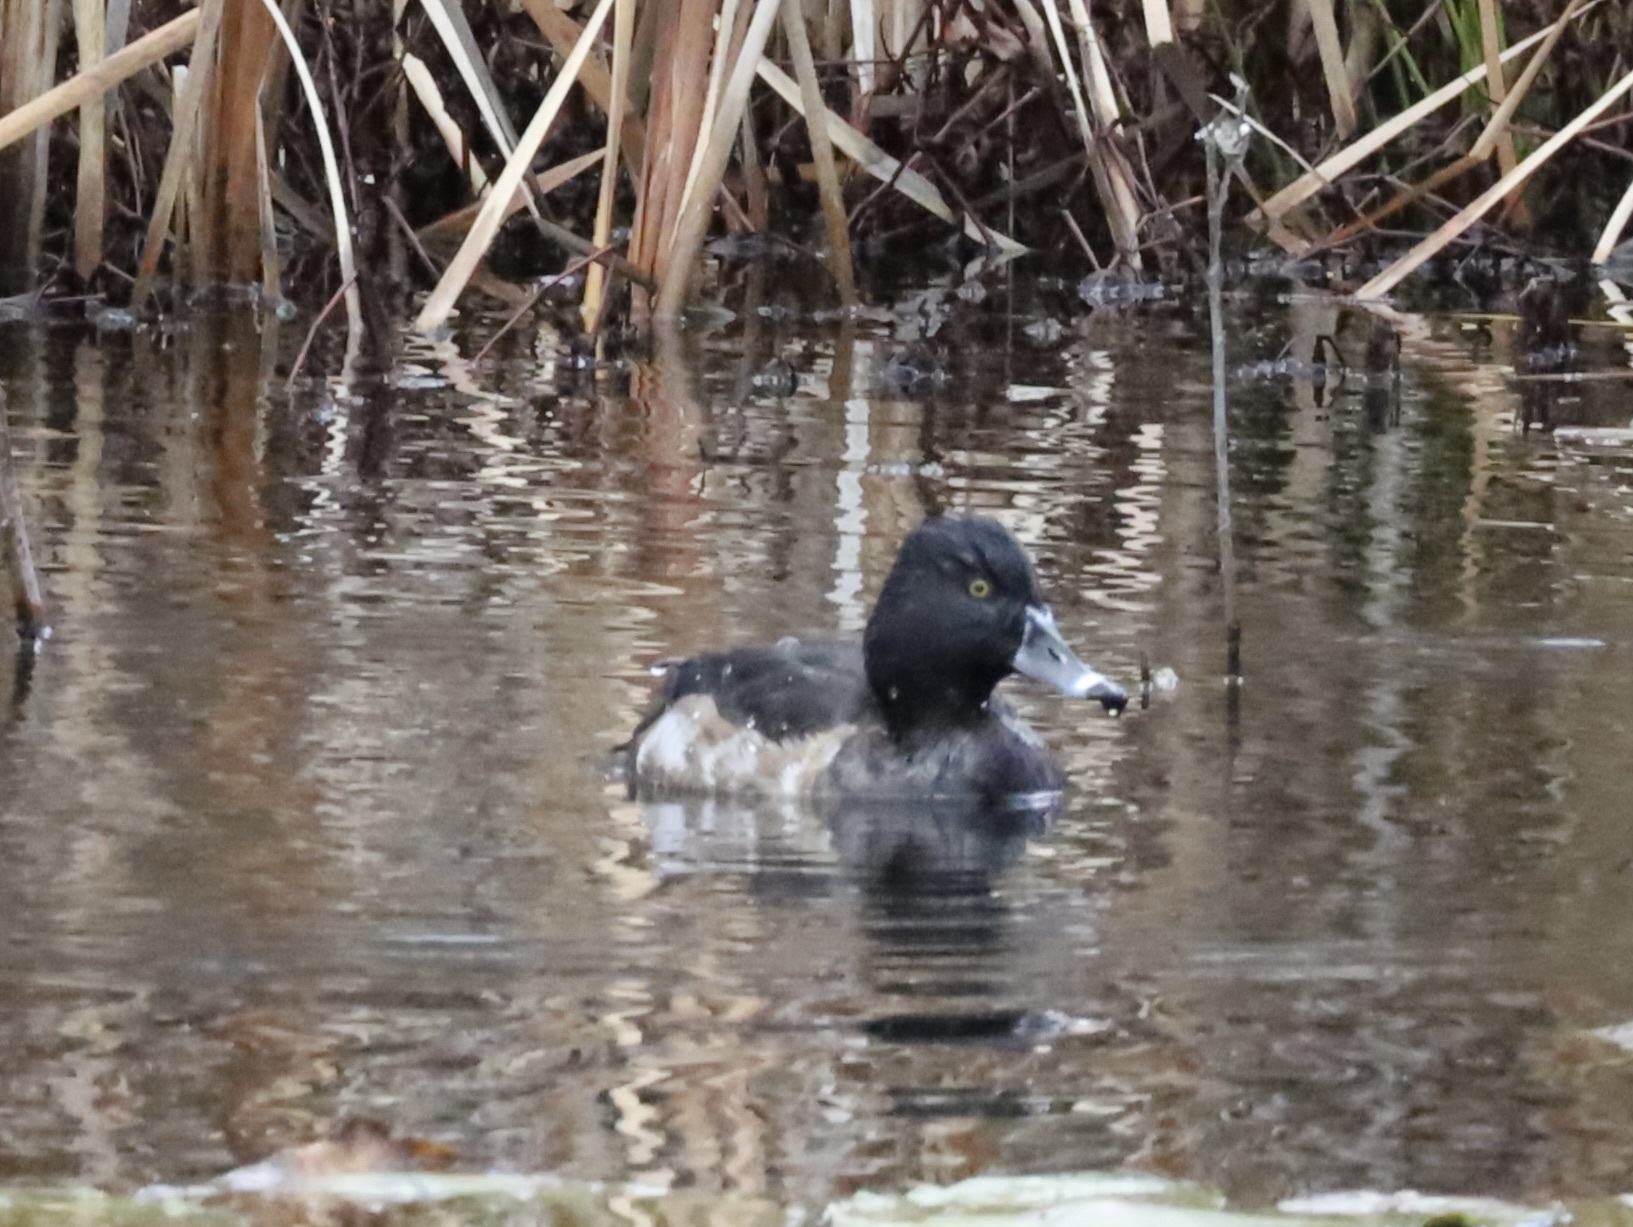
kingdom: Animalia
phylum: Chordata
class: Aves
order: Anseriformes
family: Anatidae
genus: Aythya
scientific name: Aythya collaris
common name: Ring-necked duck
